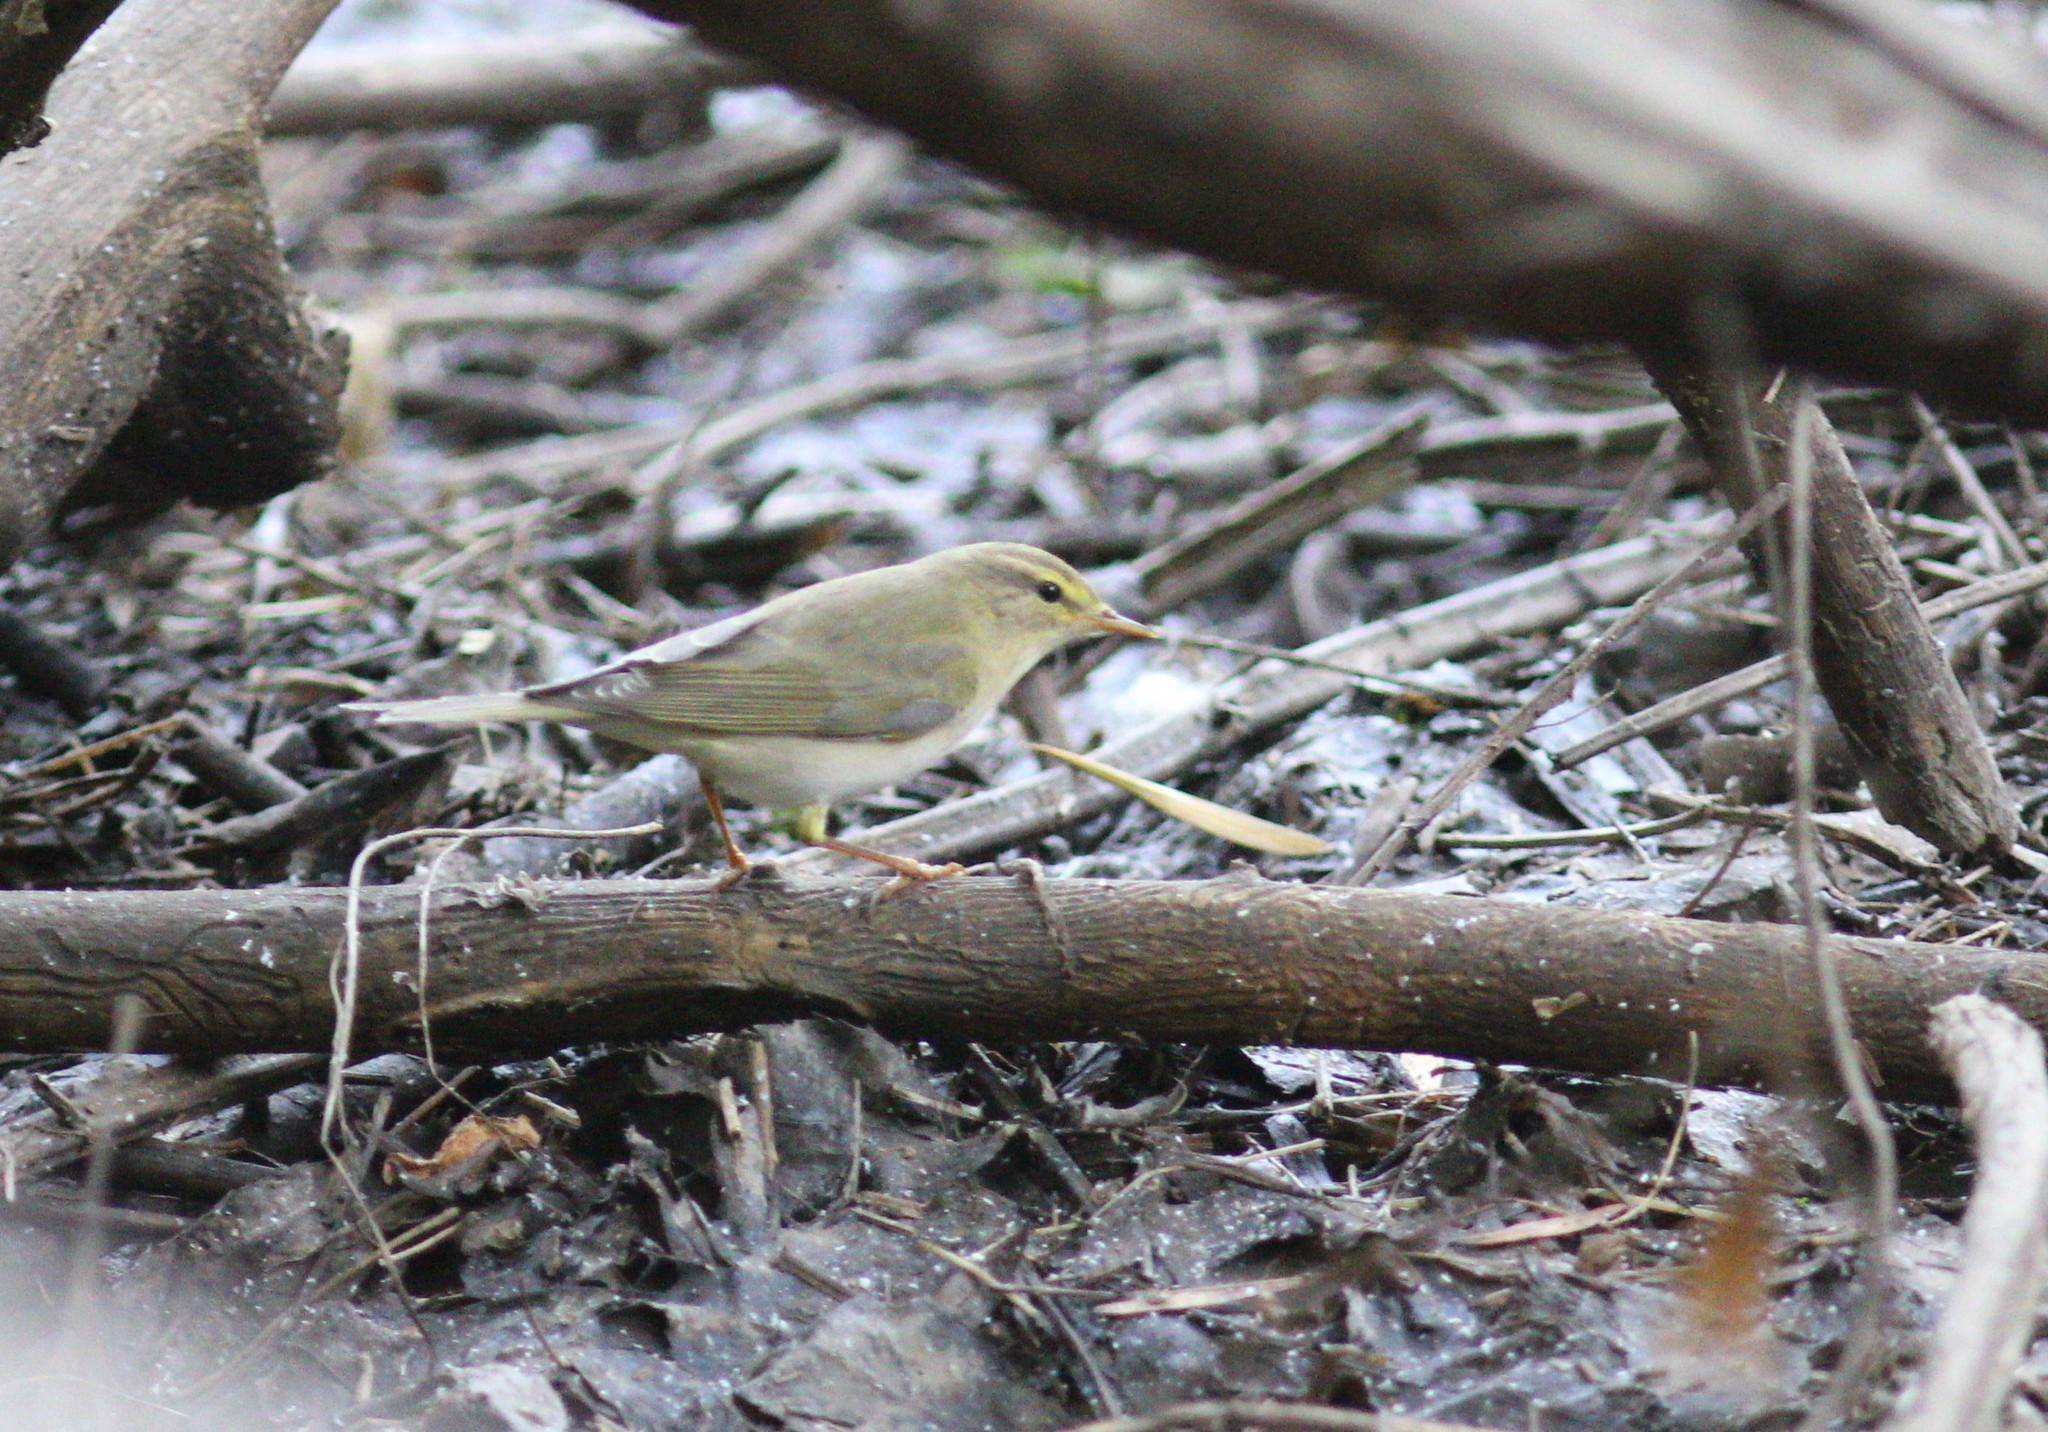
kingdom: Animalia
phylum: Chordata
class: Aves
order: Passeriformes
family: Phylloscopidae
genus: Phylloscopus
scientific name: Phylloscopus trochilus
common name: Willow warbler
